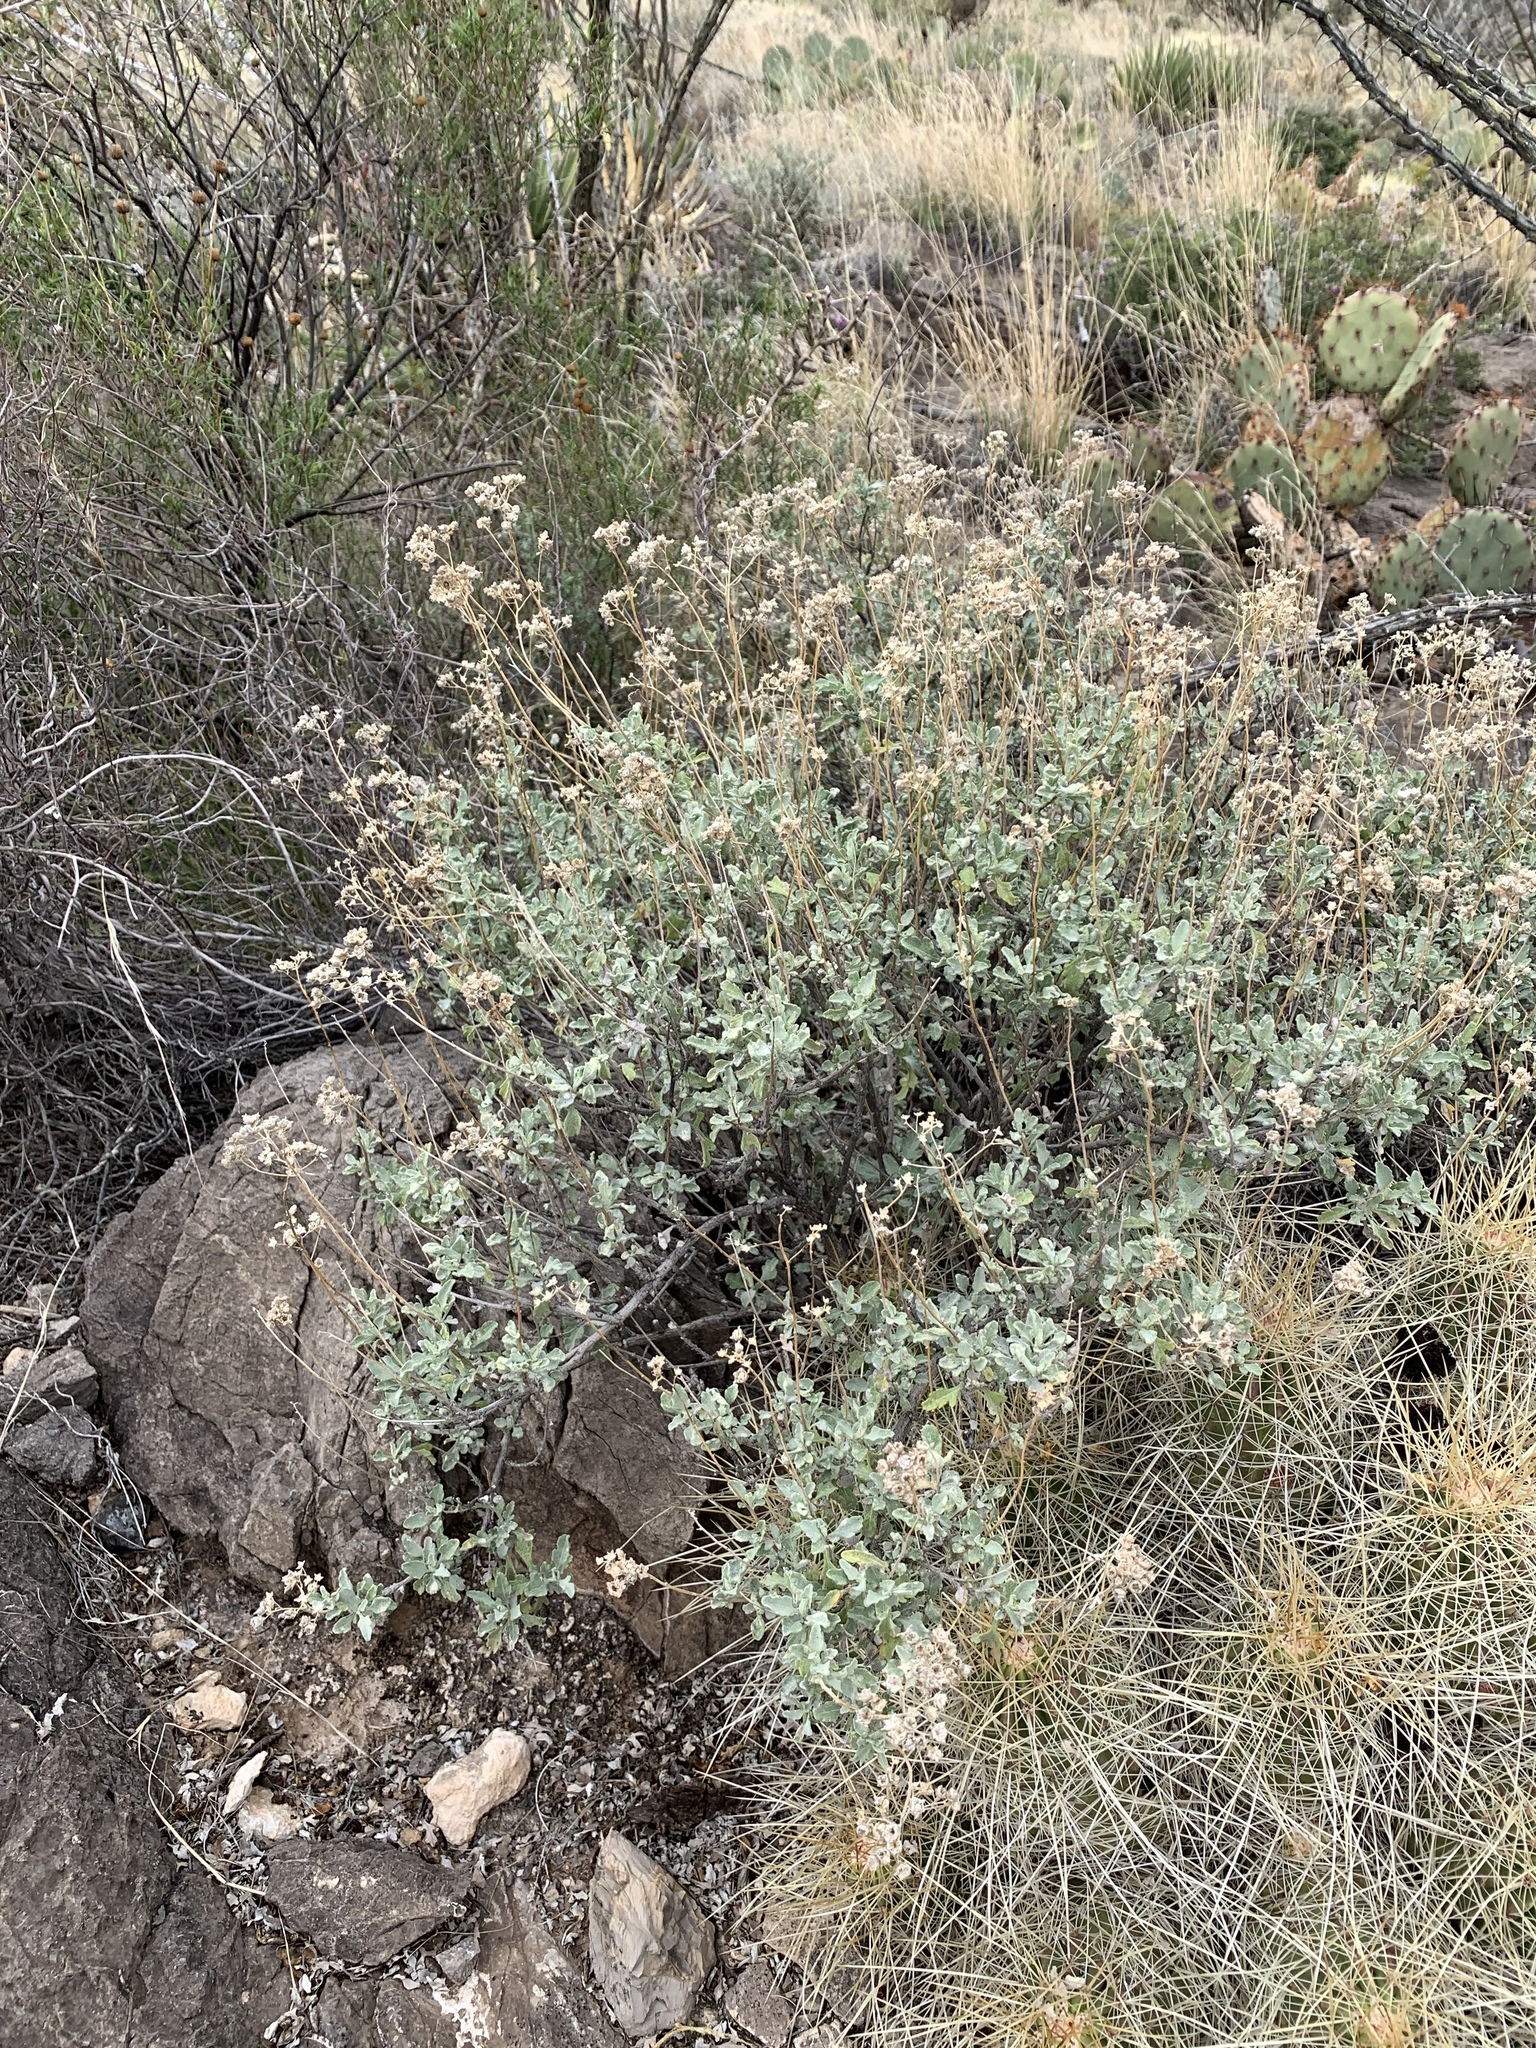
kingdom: Plantae
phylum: Tracheophyta
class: Magnoliopsida
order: Asterales
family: Asteraceae
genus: Parthenium
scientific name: Parthenium incanum
